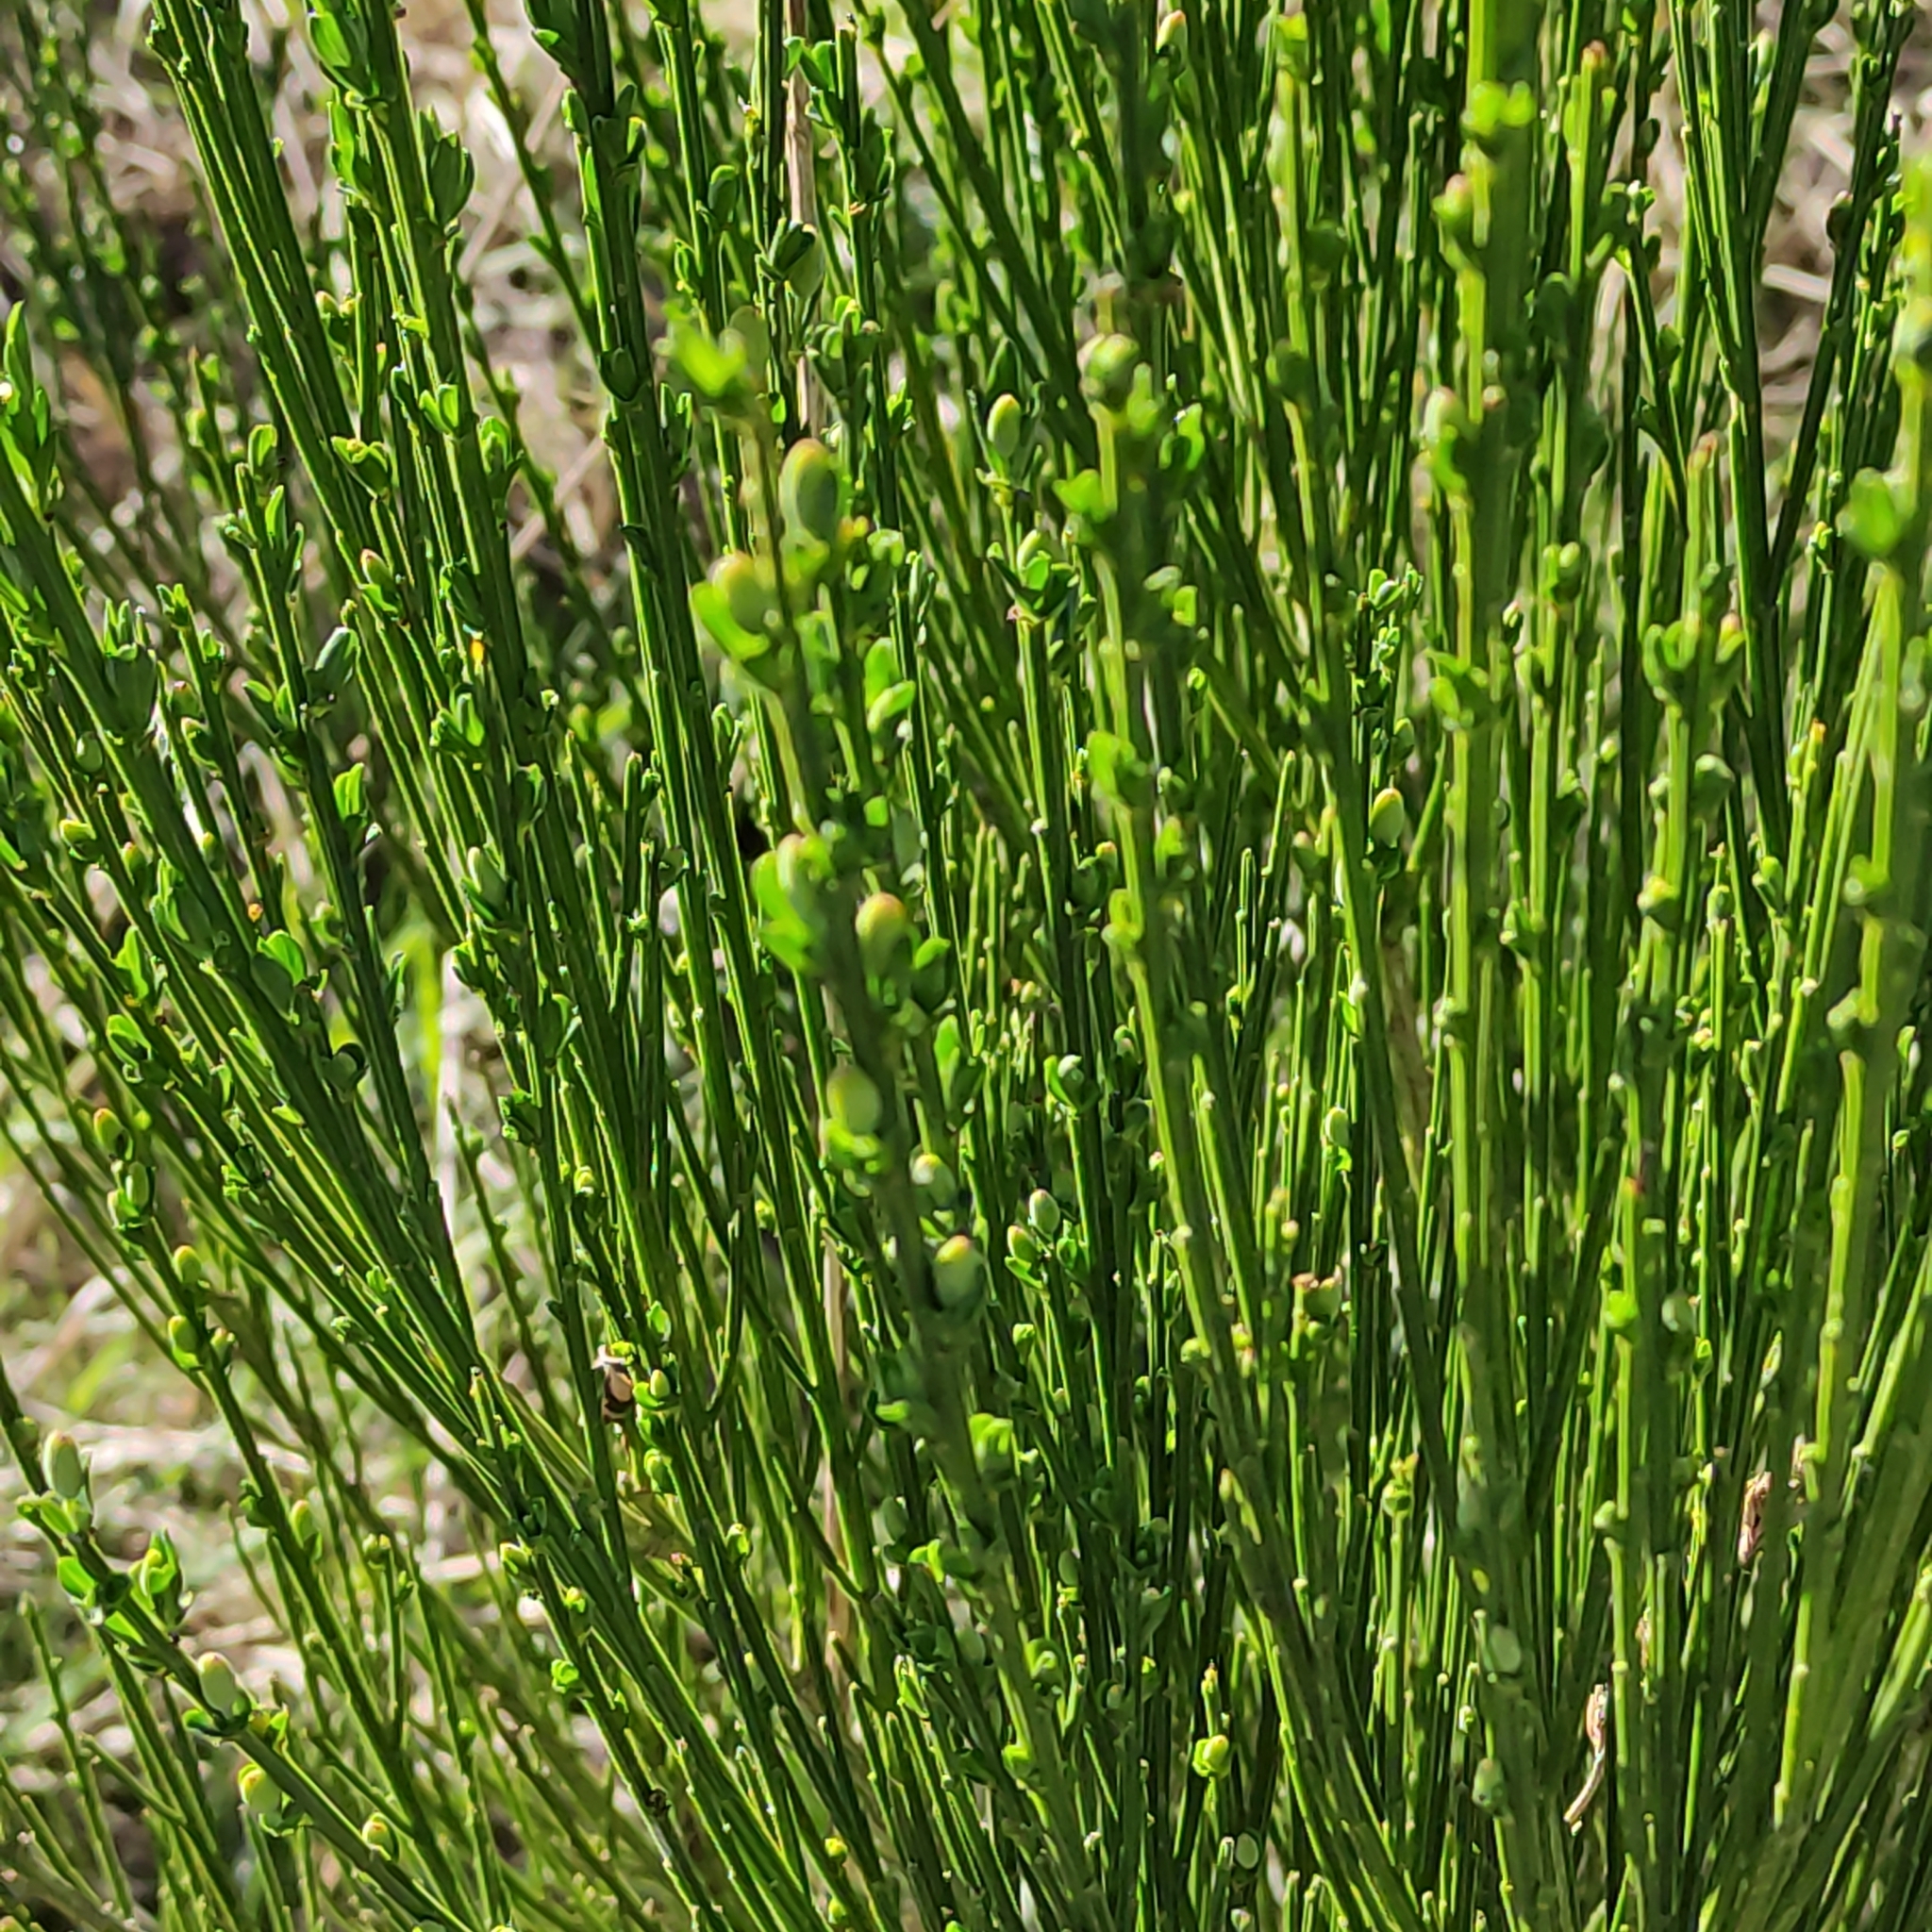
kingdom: Plantae
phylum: Tracheophyta
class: Magnoliopsida
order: Fabales
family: Fabaceae
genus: Cytisus
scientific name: Cytisus scoparius
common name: Scotch broom
